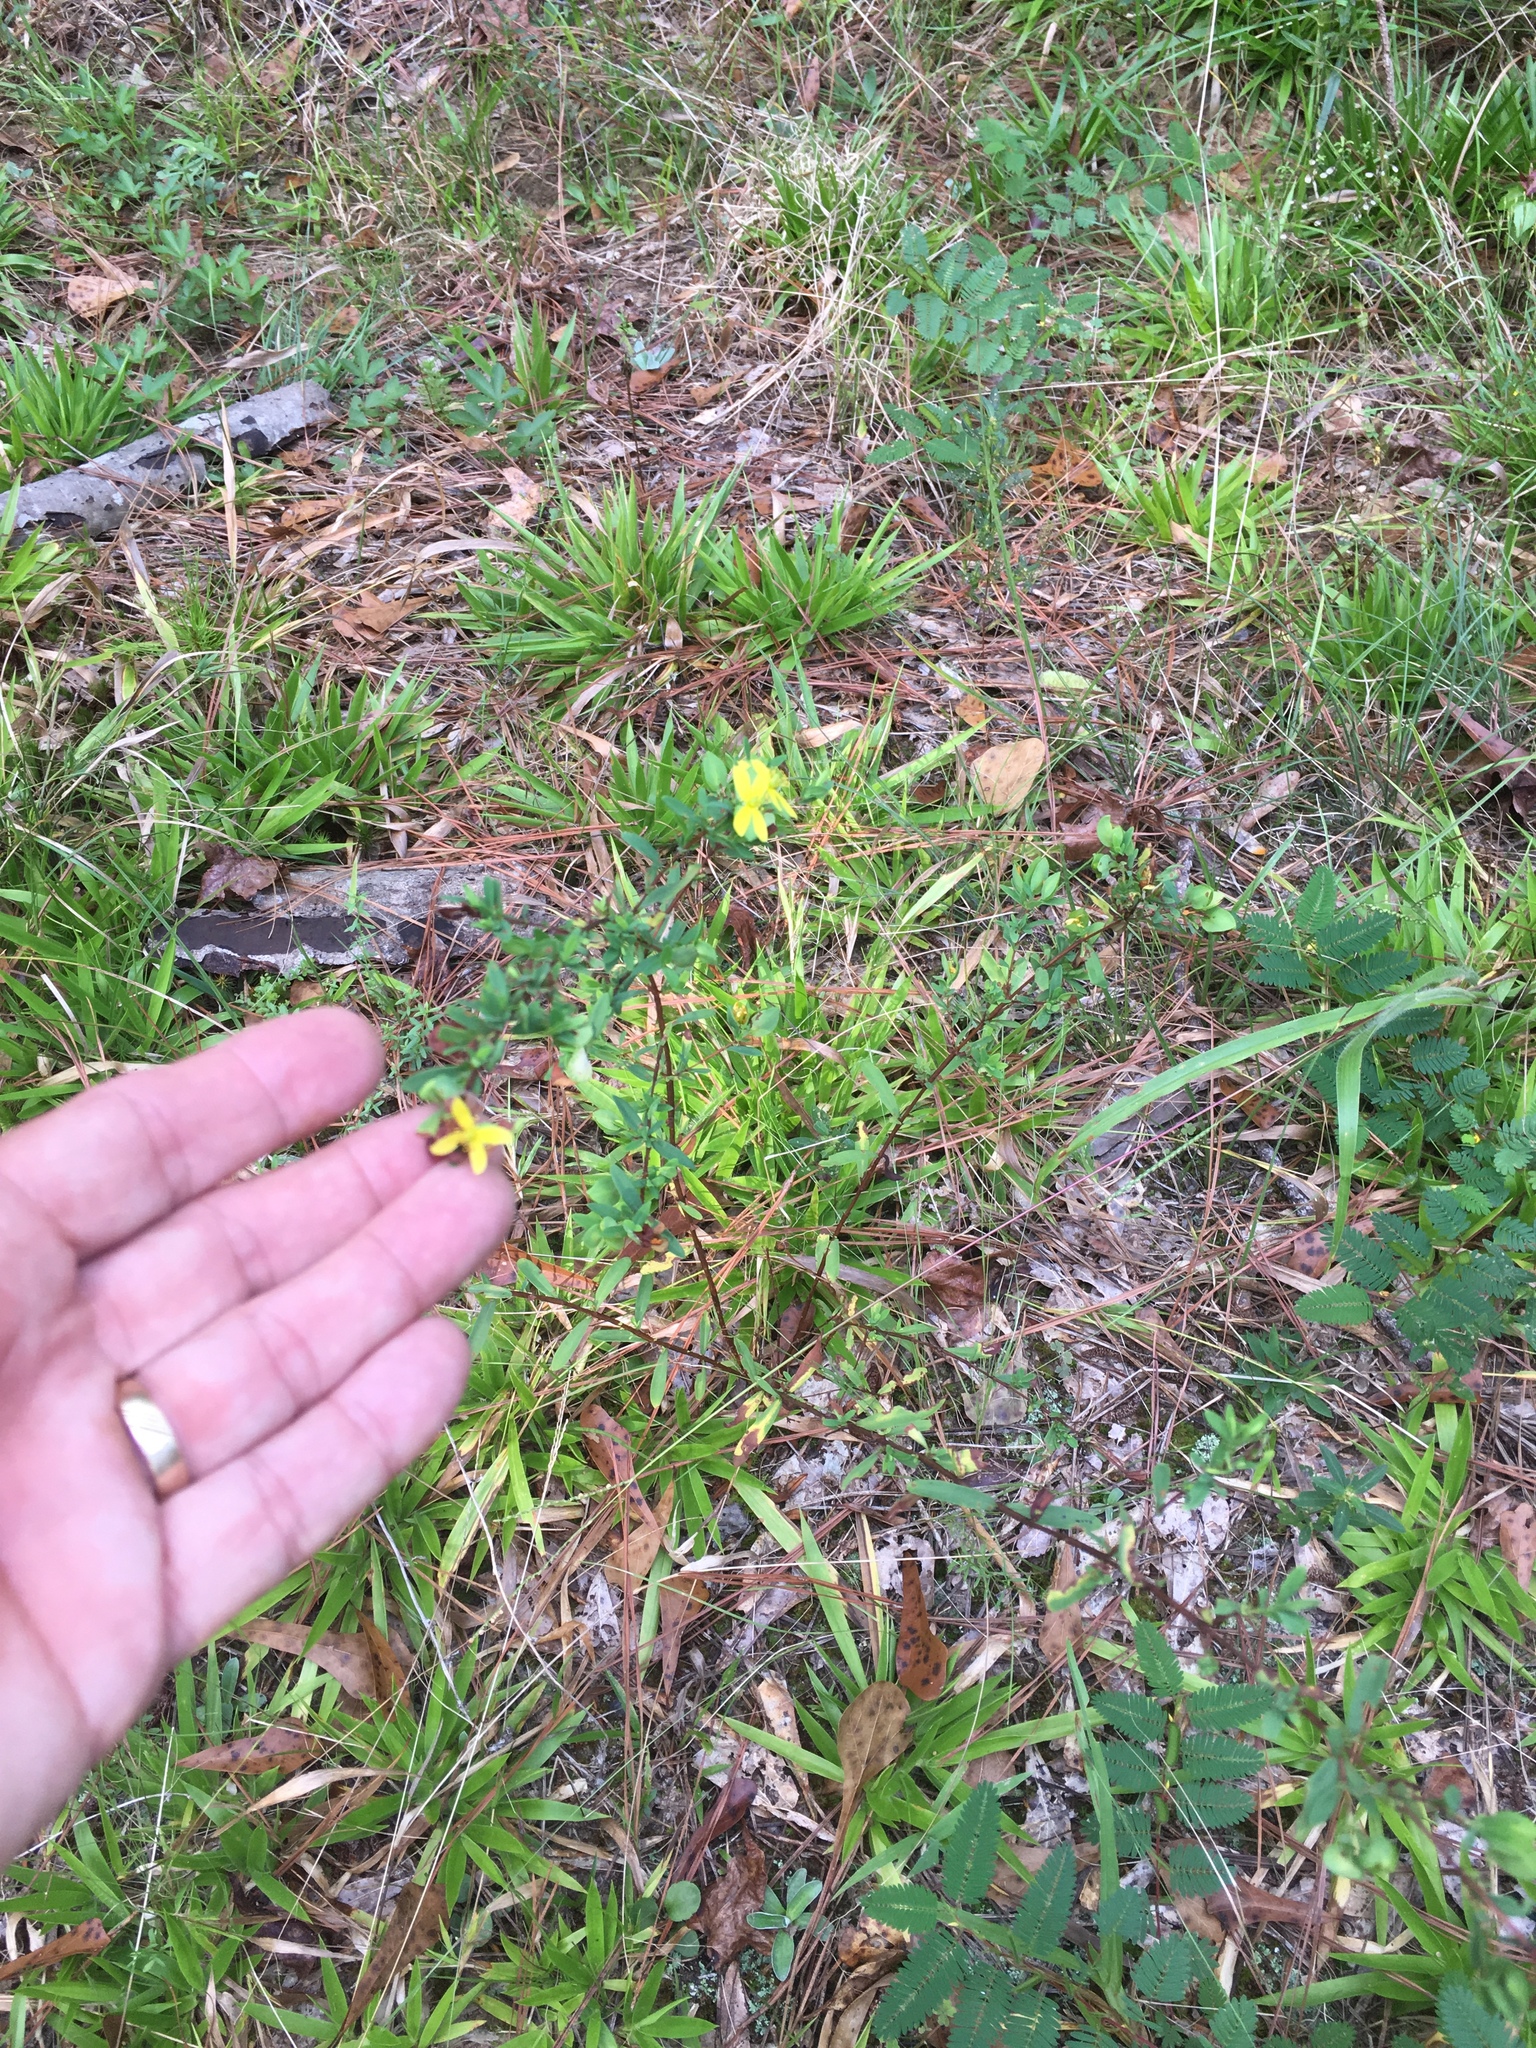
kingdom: Plantae
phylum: Tracheophyta
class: Magnoliopsida
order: Malpighiales
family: Hypericaceae
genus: Hypericum
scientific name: Hypericum hypericoides
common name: St. andrew's cross
